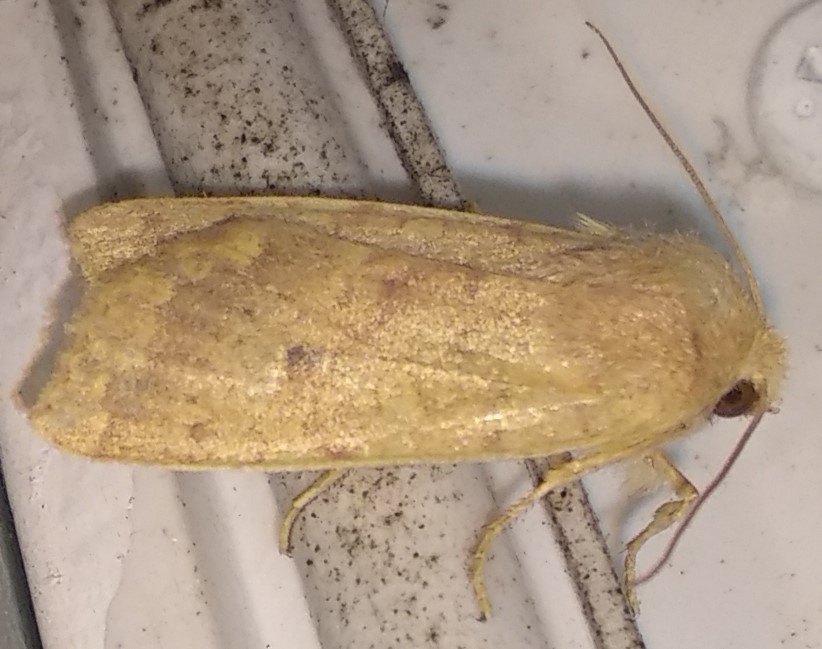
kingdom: Animalia
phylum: Arthropoda
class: Insecta
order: Lepidoptera
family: Noctuidae
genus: Agrochola
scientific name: Agrochola bicolorago
